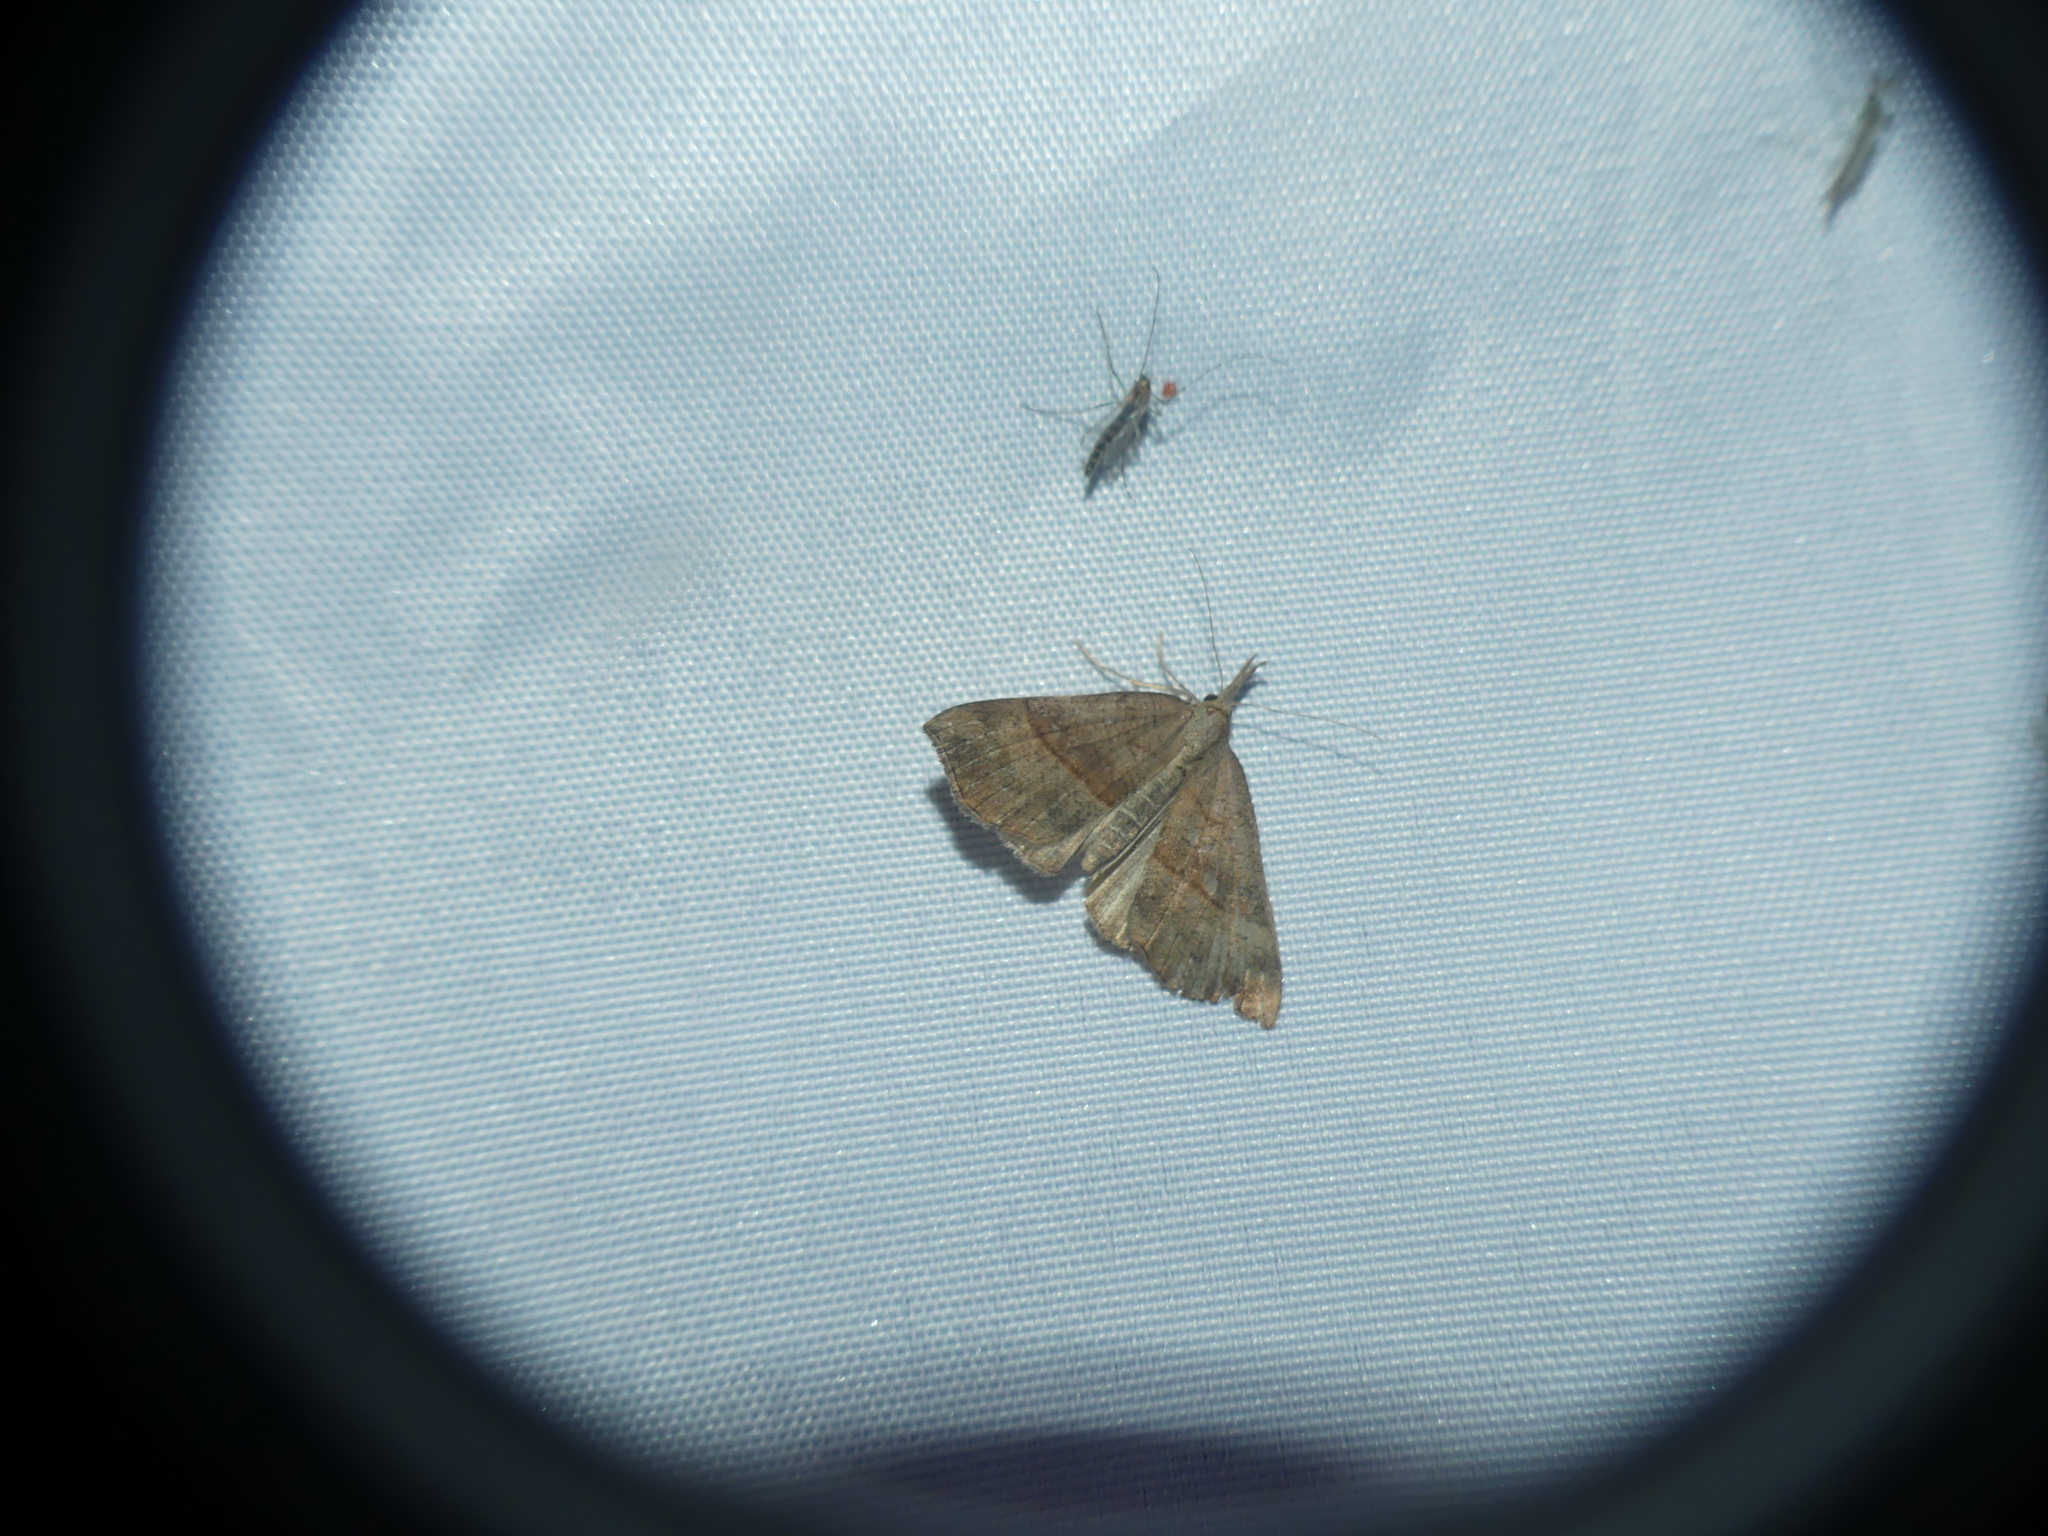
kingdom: Animalia
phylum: Arthropoda
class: Insecta
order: Lepidoptera
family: Erebidae
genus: Hypena
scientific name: Hypena proboscidalis
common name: Snout
